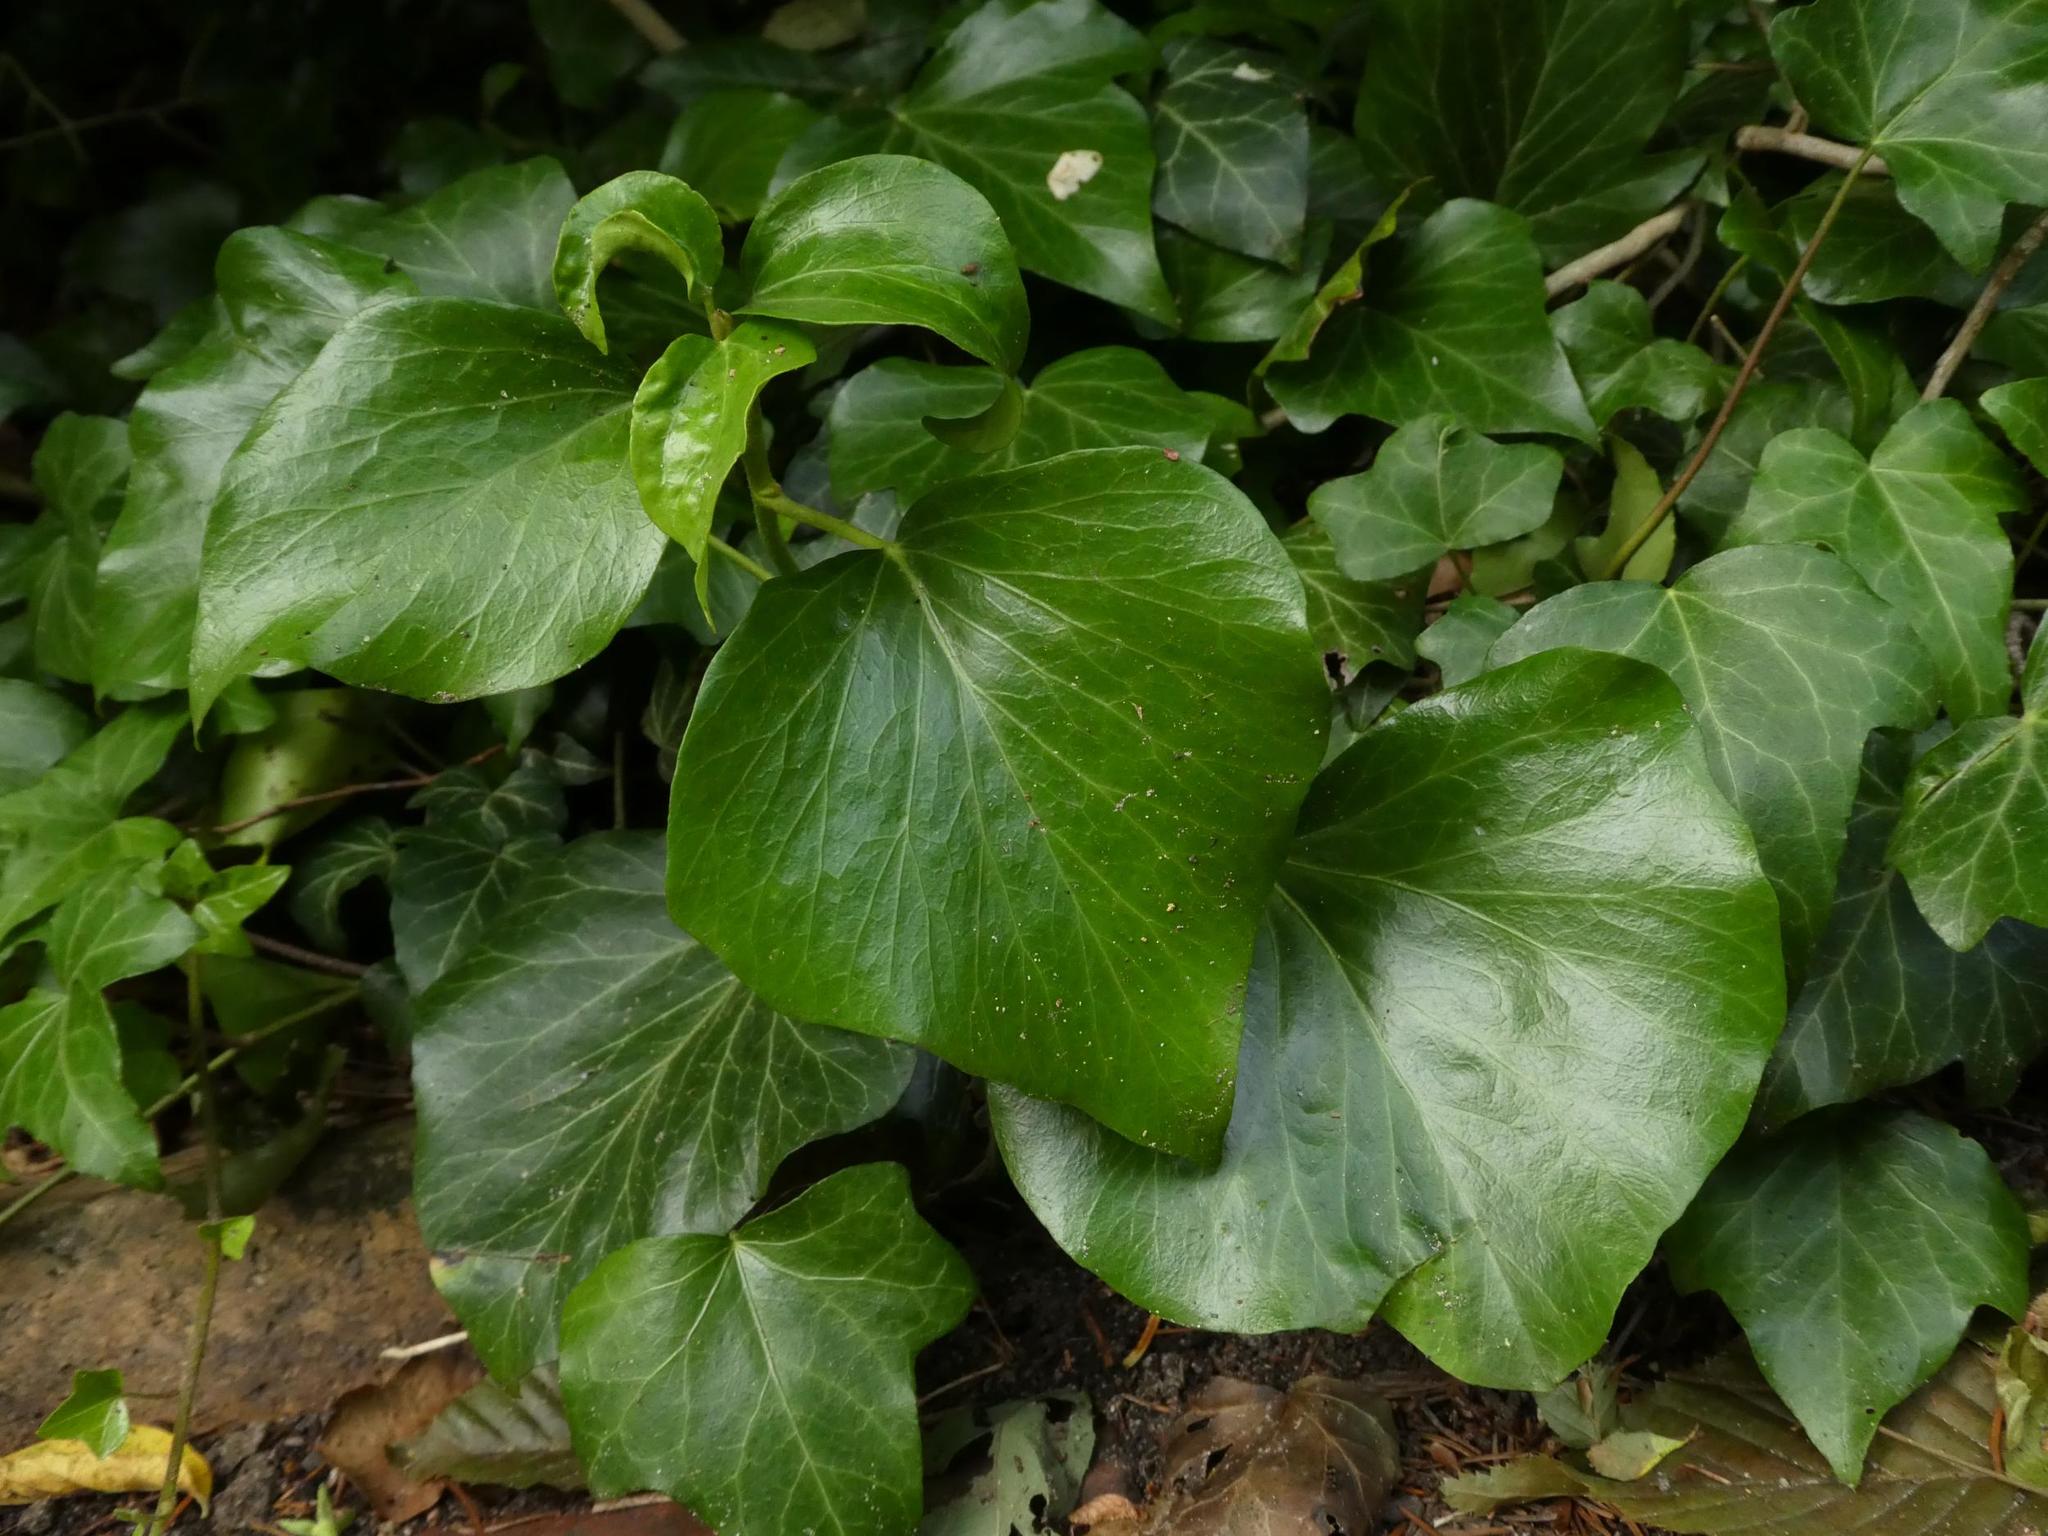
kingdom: Plantae
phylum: Tracheophyta
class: Magnoliopsida
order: Apiales
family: Araliaceae
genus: Hedera
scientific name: Hedera helix
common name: Ivy
